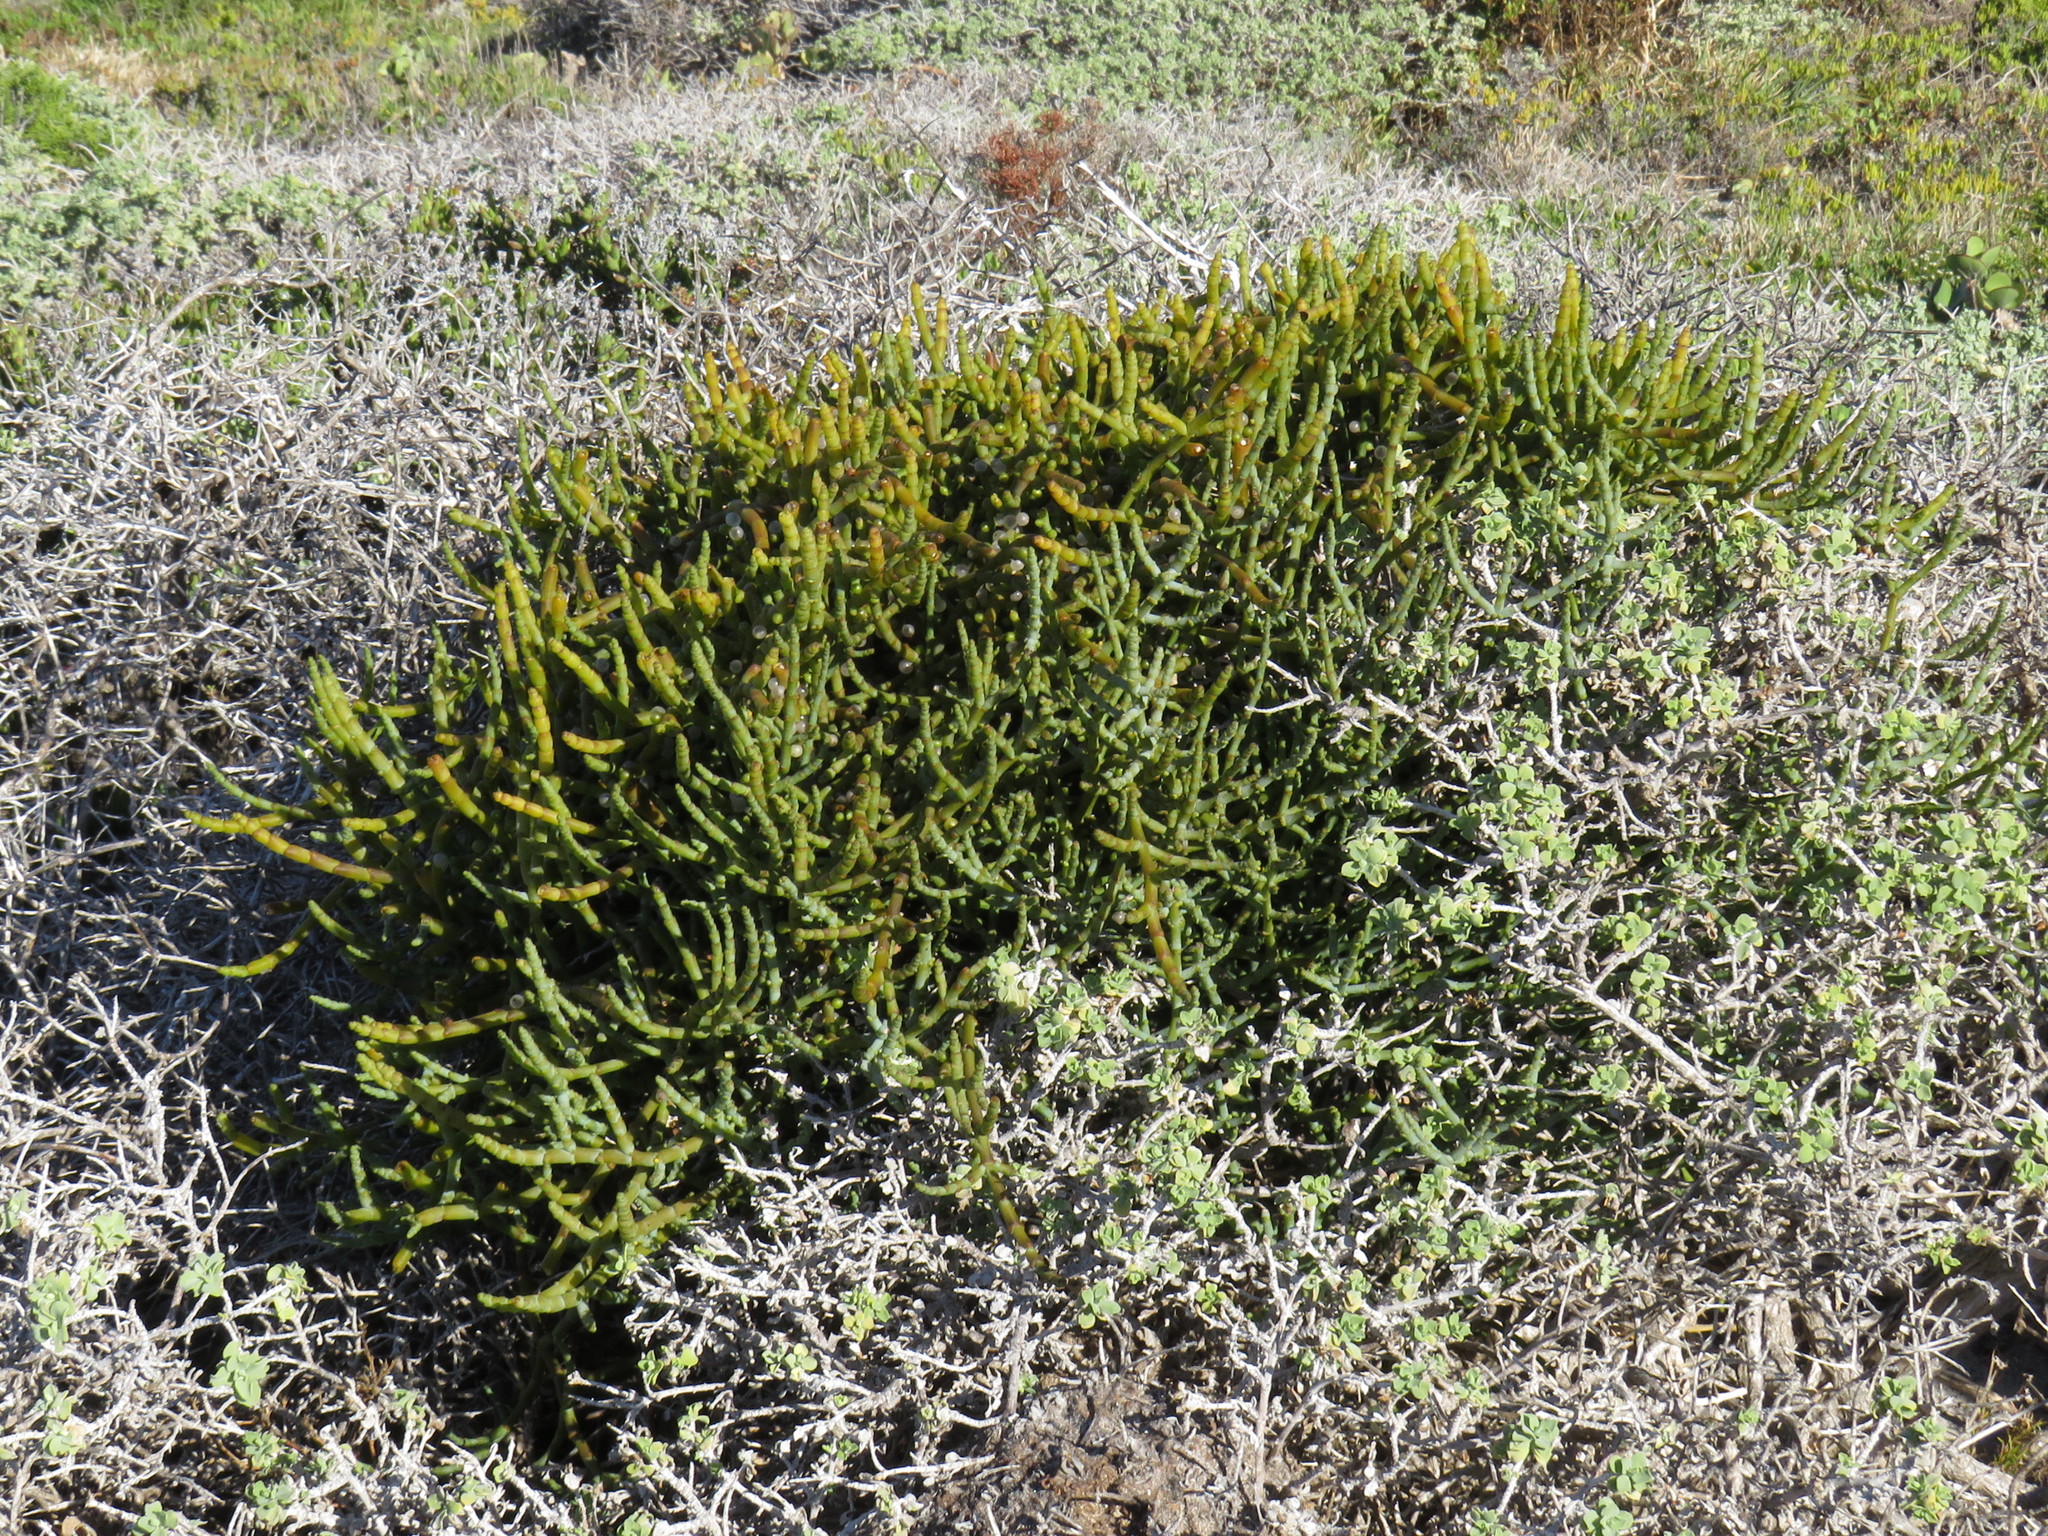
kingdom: Plantae
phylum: Tracheophyta
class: Magnoliopsida
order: Santalales
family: Viscaceae
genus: Viscum
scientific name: Viscum capense
